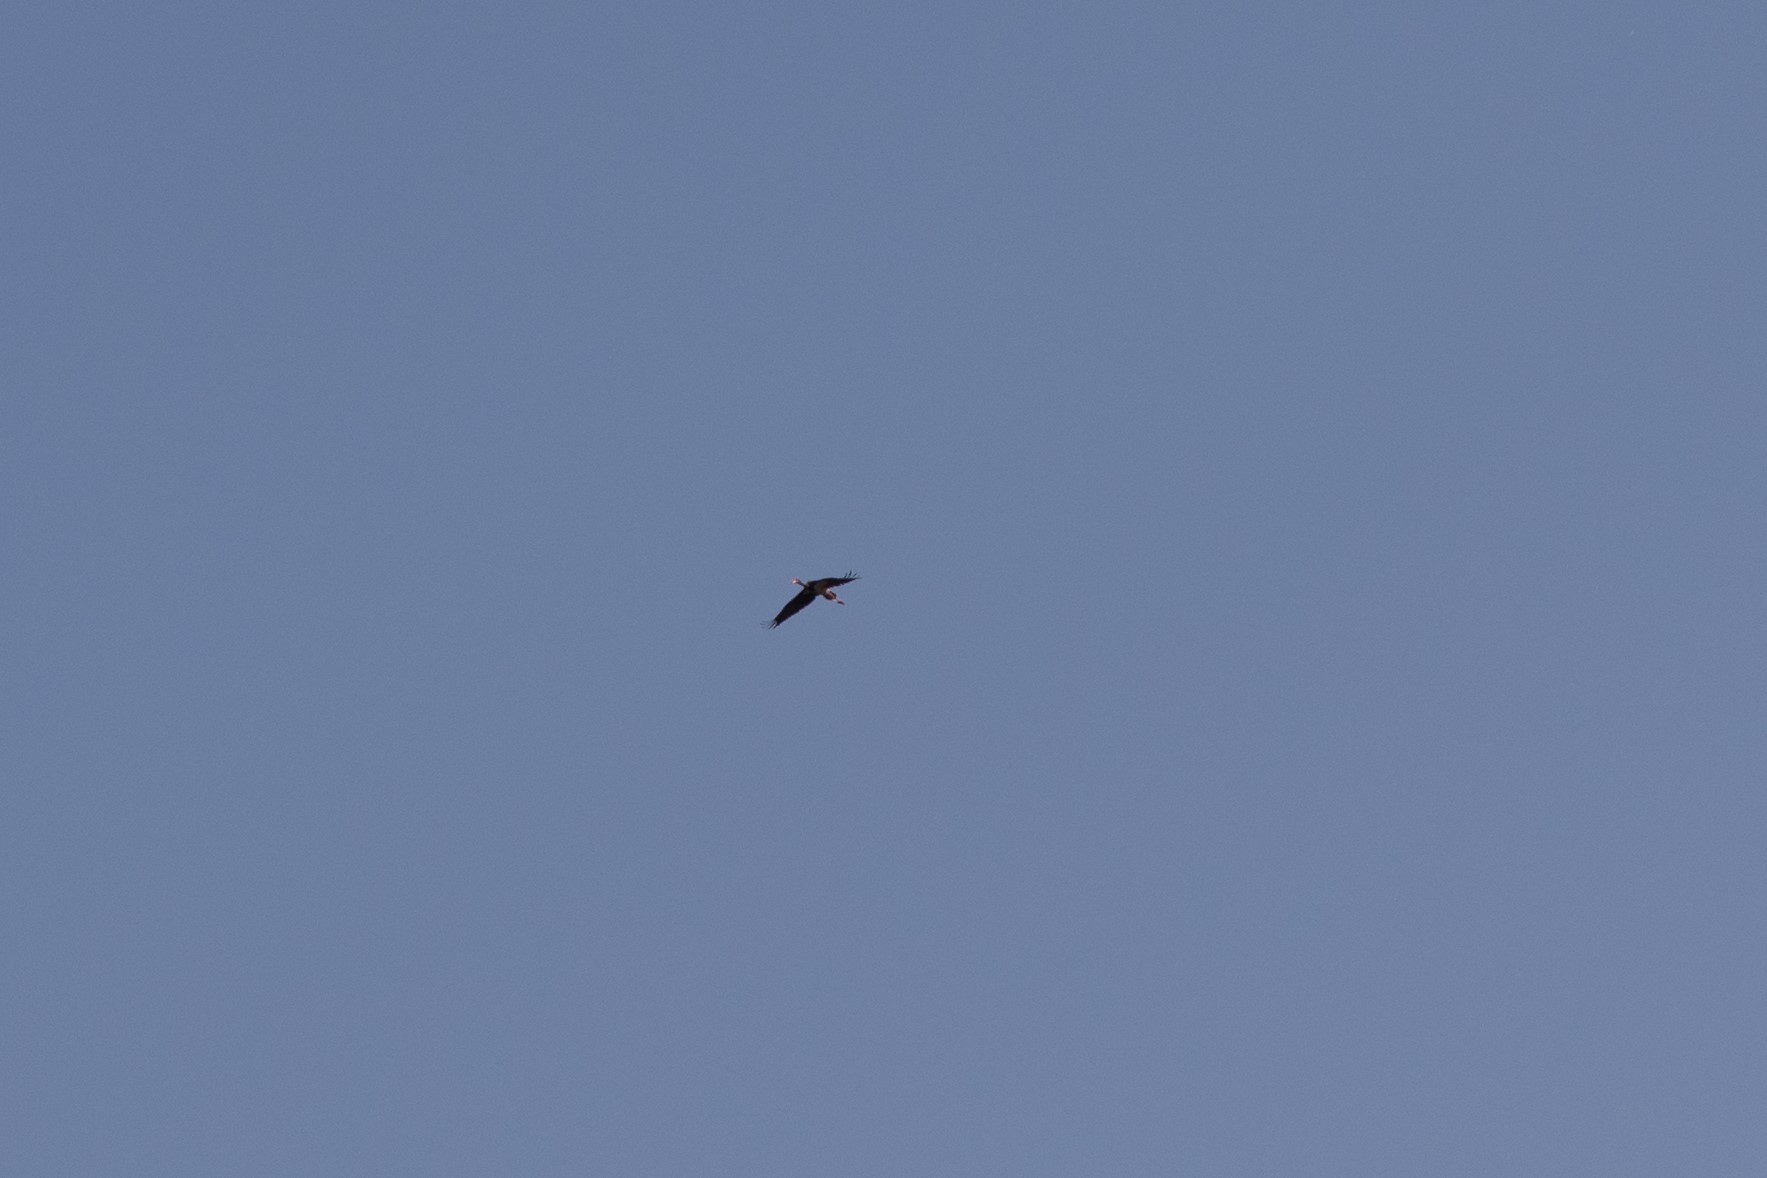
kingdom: Animalia
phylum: Chordata
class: Aves
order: Ciconiiformes
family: Ciconiidae
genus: Ciconia
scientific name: Ciconia nigra
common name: Black stork
